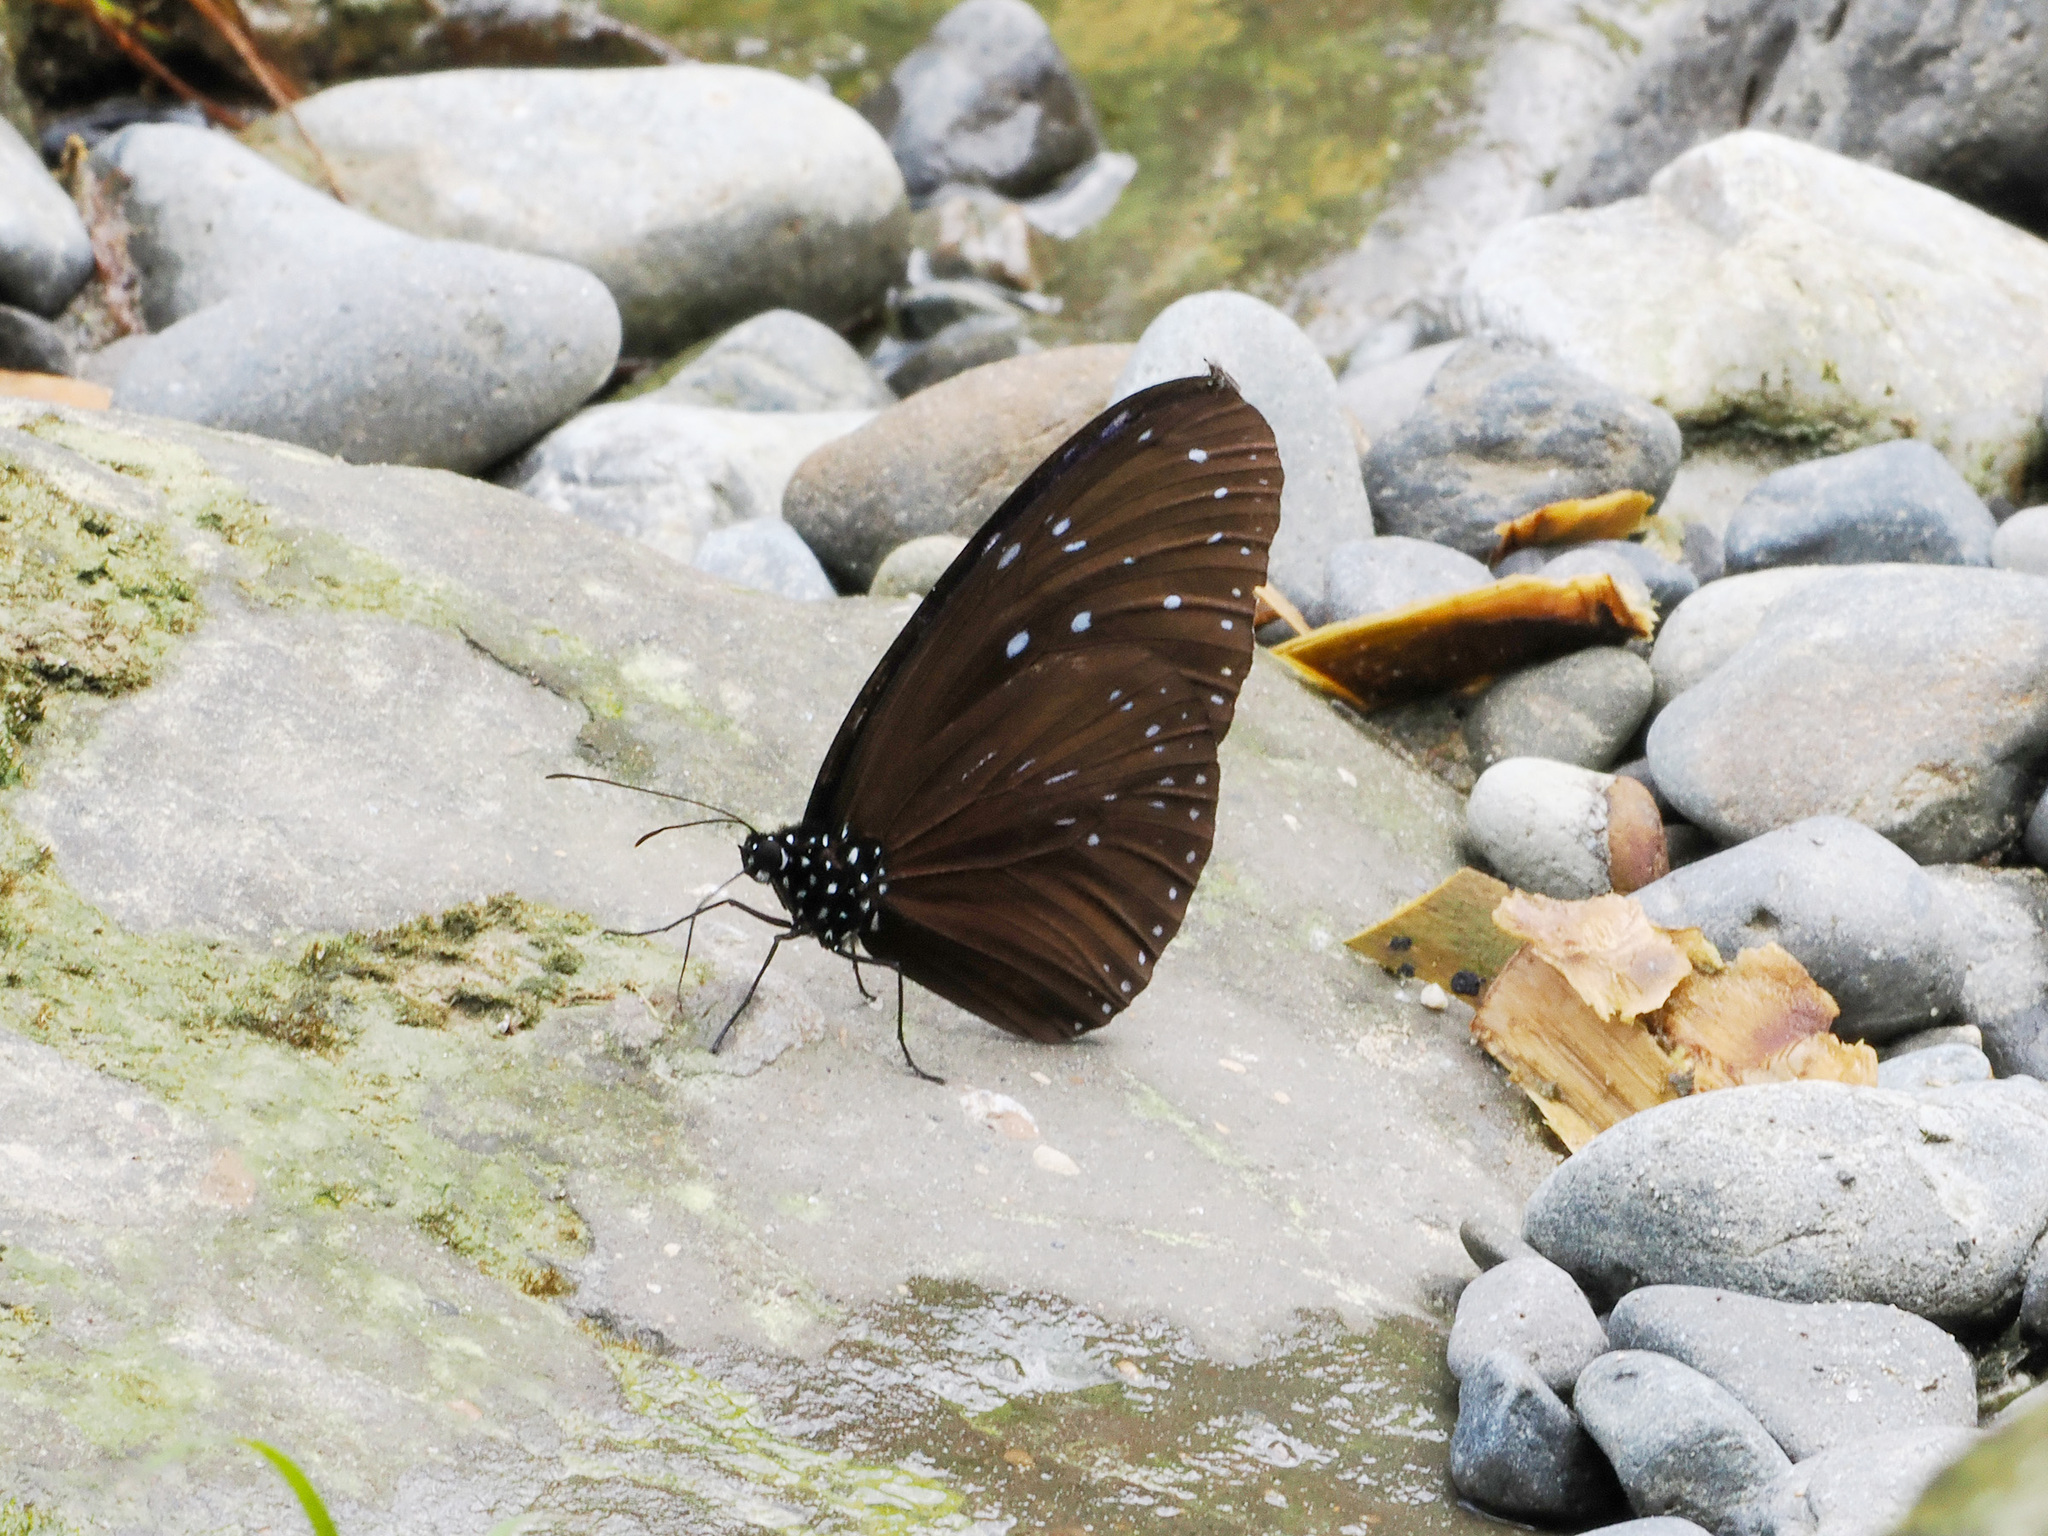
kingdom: Animalia
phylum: Arthropoda
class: Insecta
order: Lepidoptera
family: Nymphalidae
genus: Euploea
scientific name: Euploea mulciber
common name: Striped blue crow butterfly
